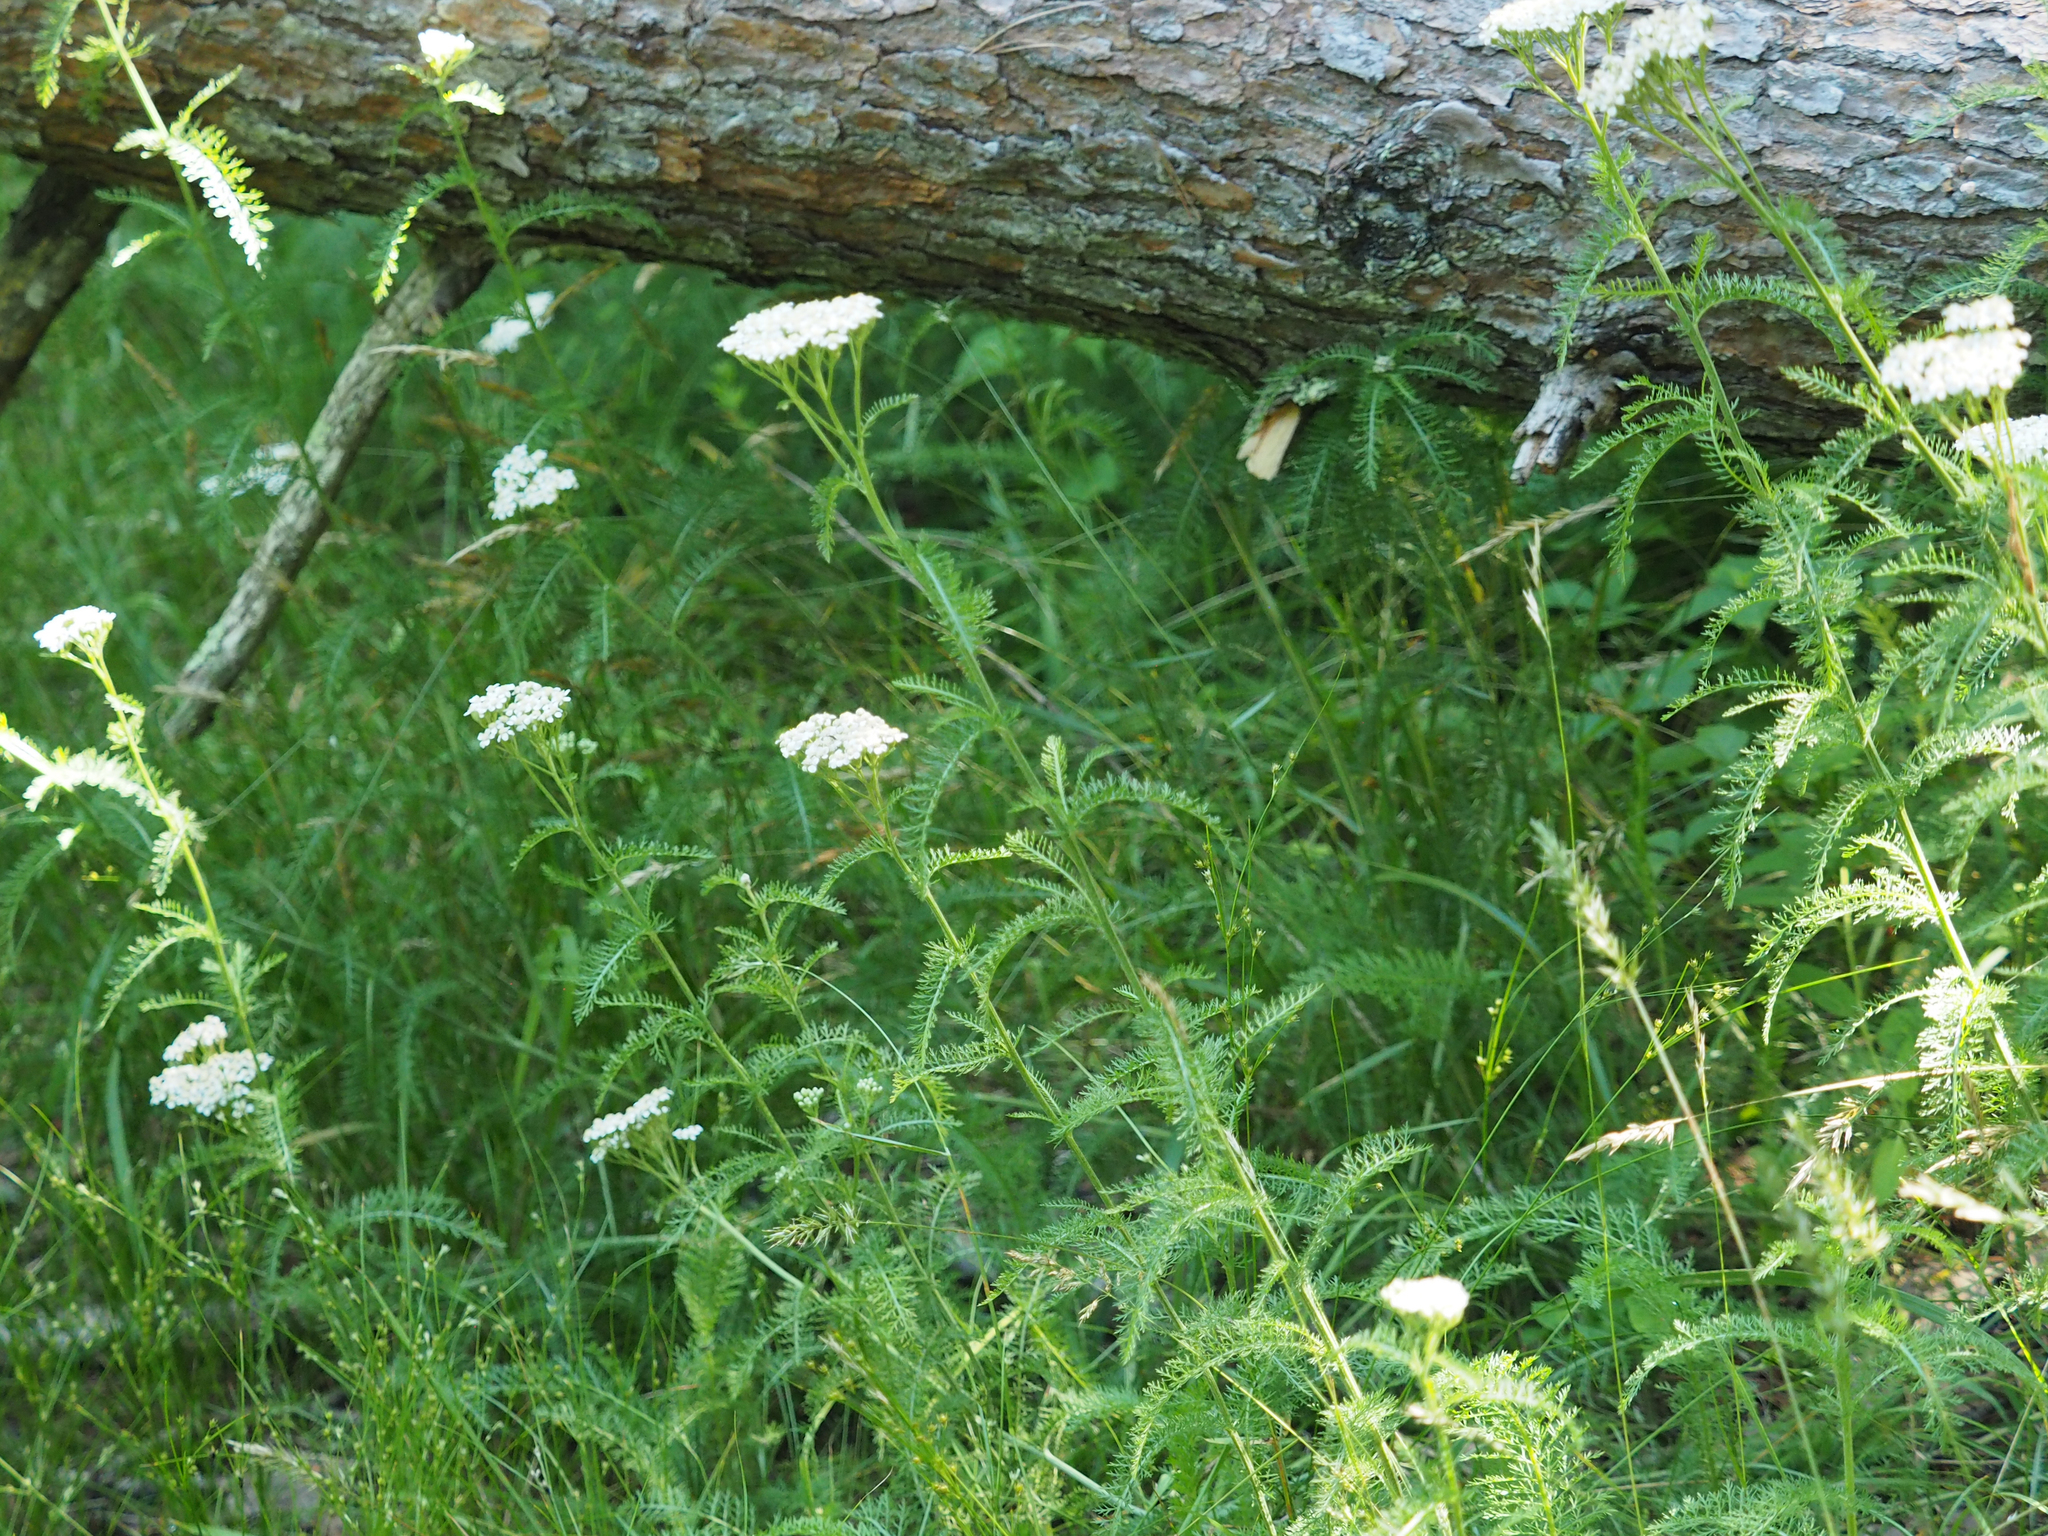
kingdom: Plantae
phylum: Tracheophyta
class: Magnoliopsida
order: Asterales
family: Asteraceae
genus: Achillea
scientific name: Achillea millefolium
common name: Yarrow
